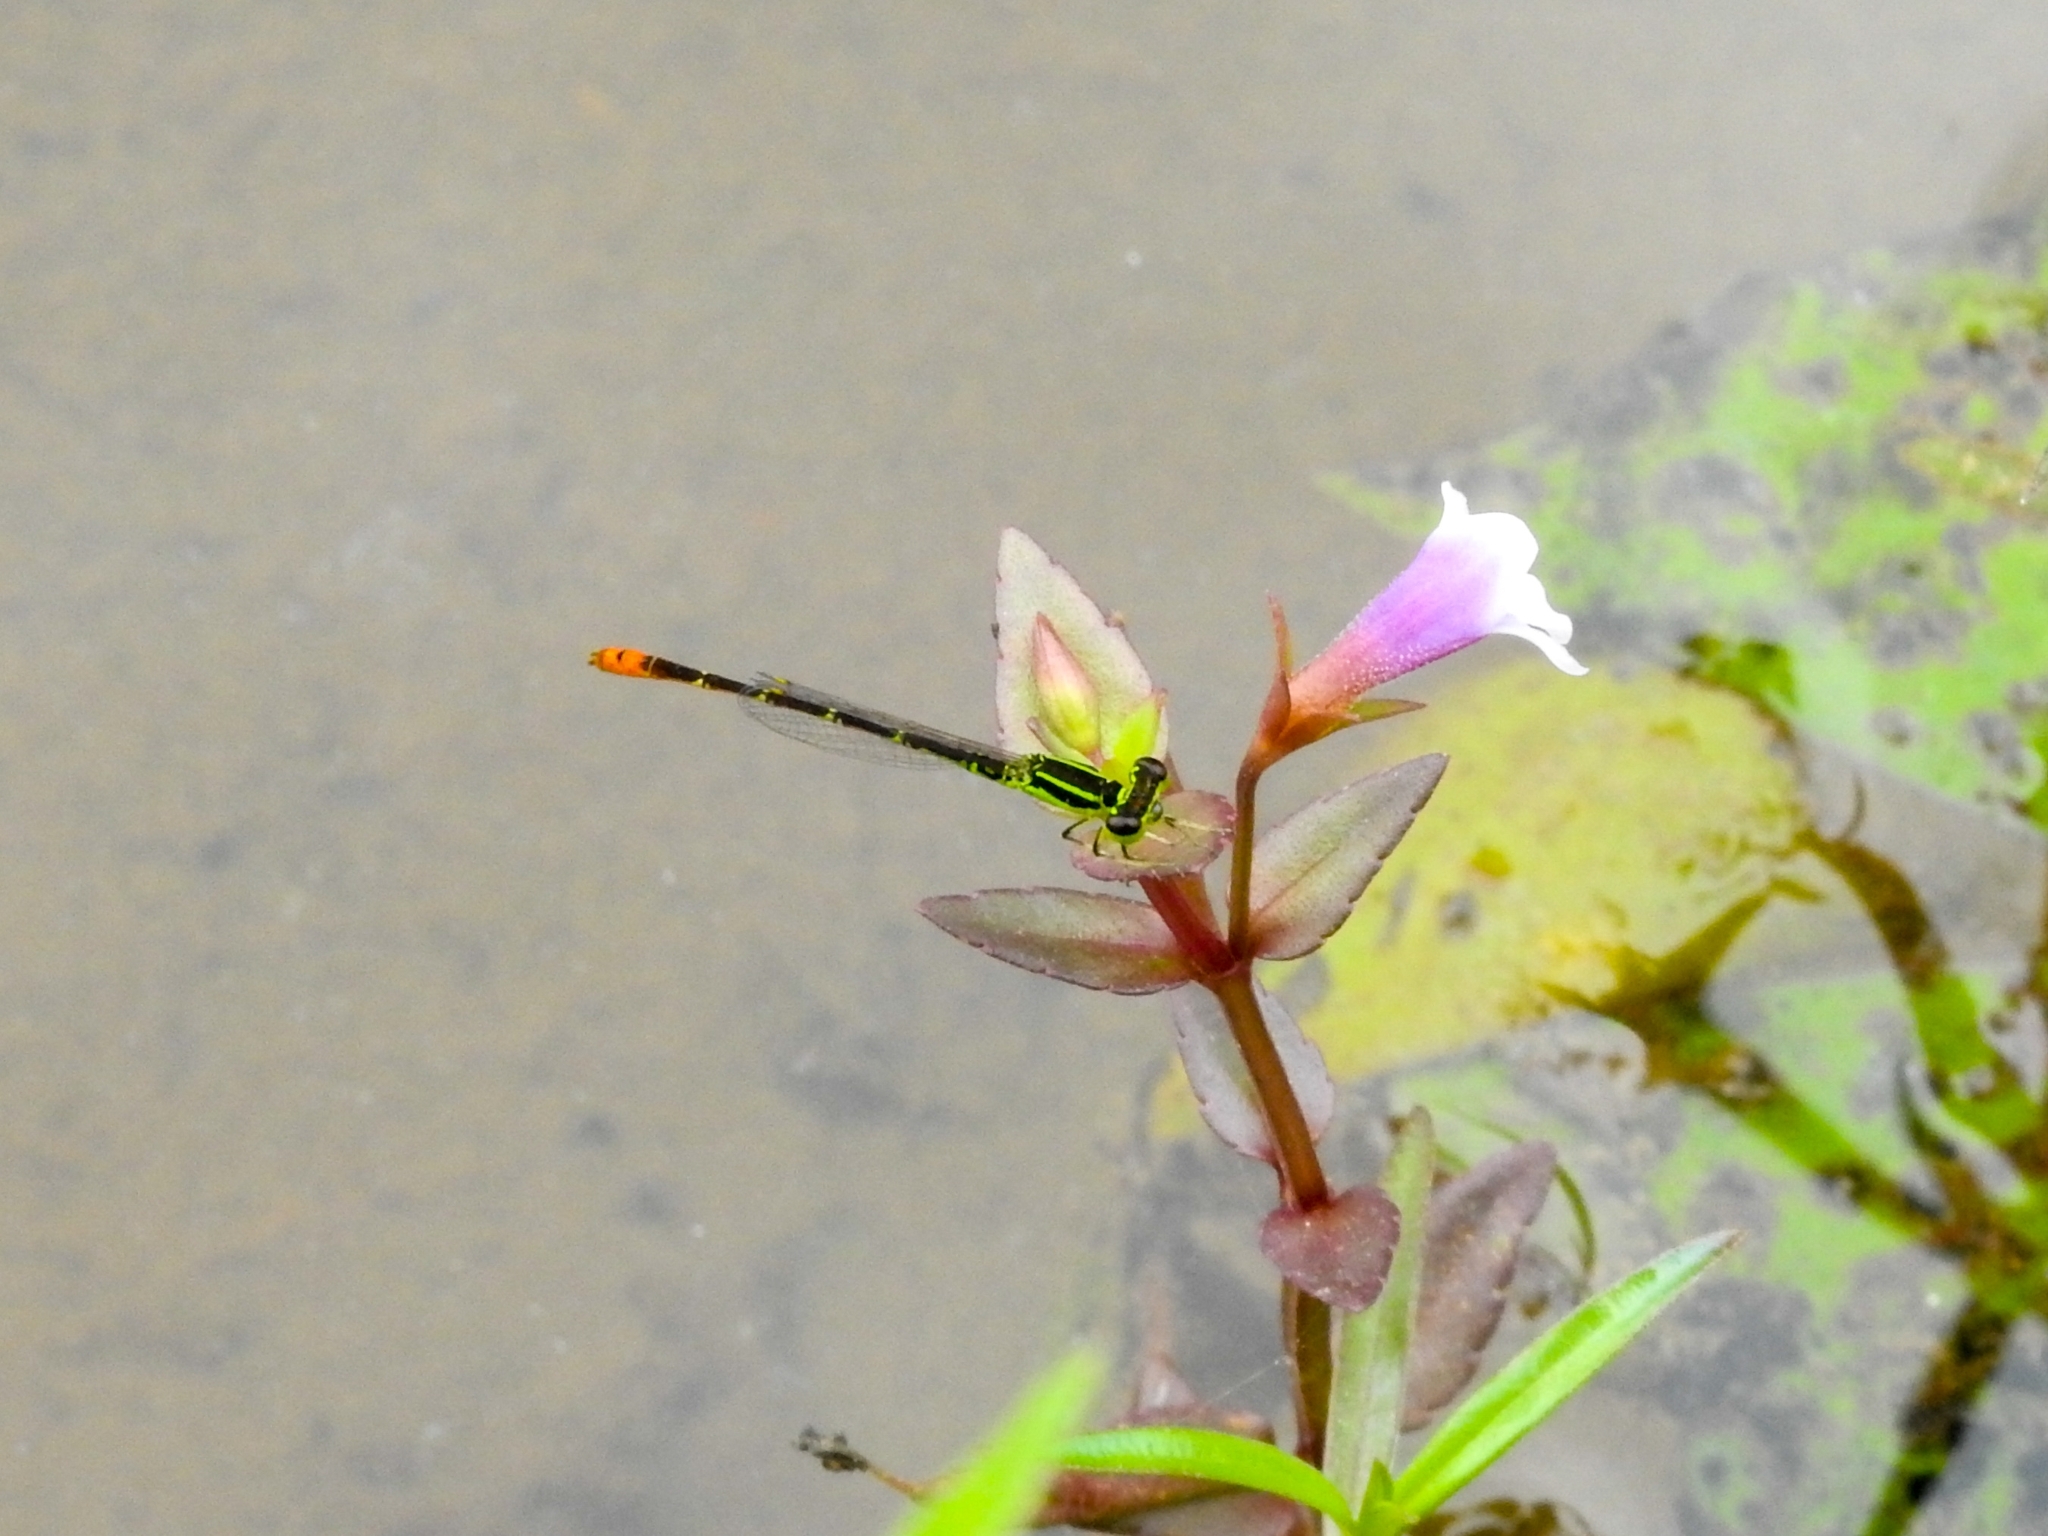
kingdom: Animalia
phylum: Arthropoda
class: Insecta
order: Odonata
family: Coenagrionidae
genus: Agriocnemis
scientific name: Agriocnemis minima
